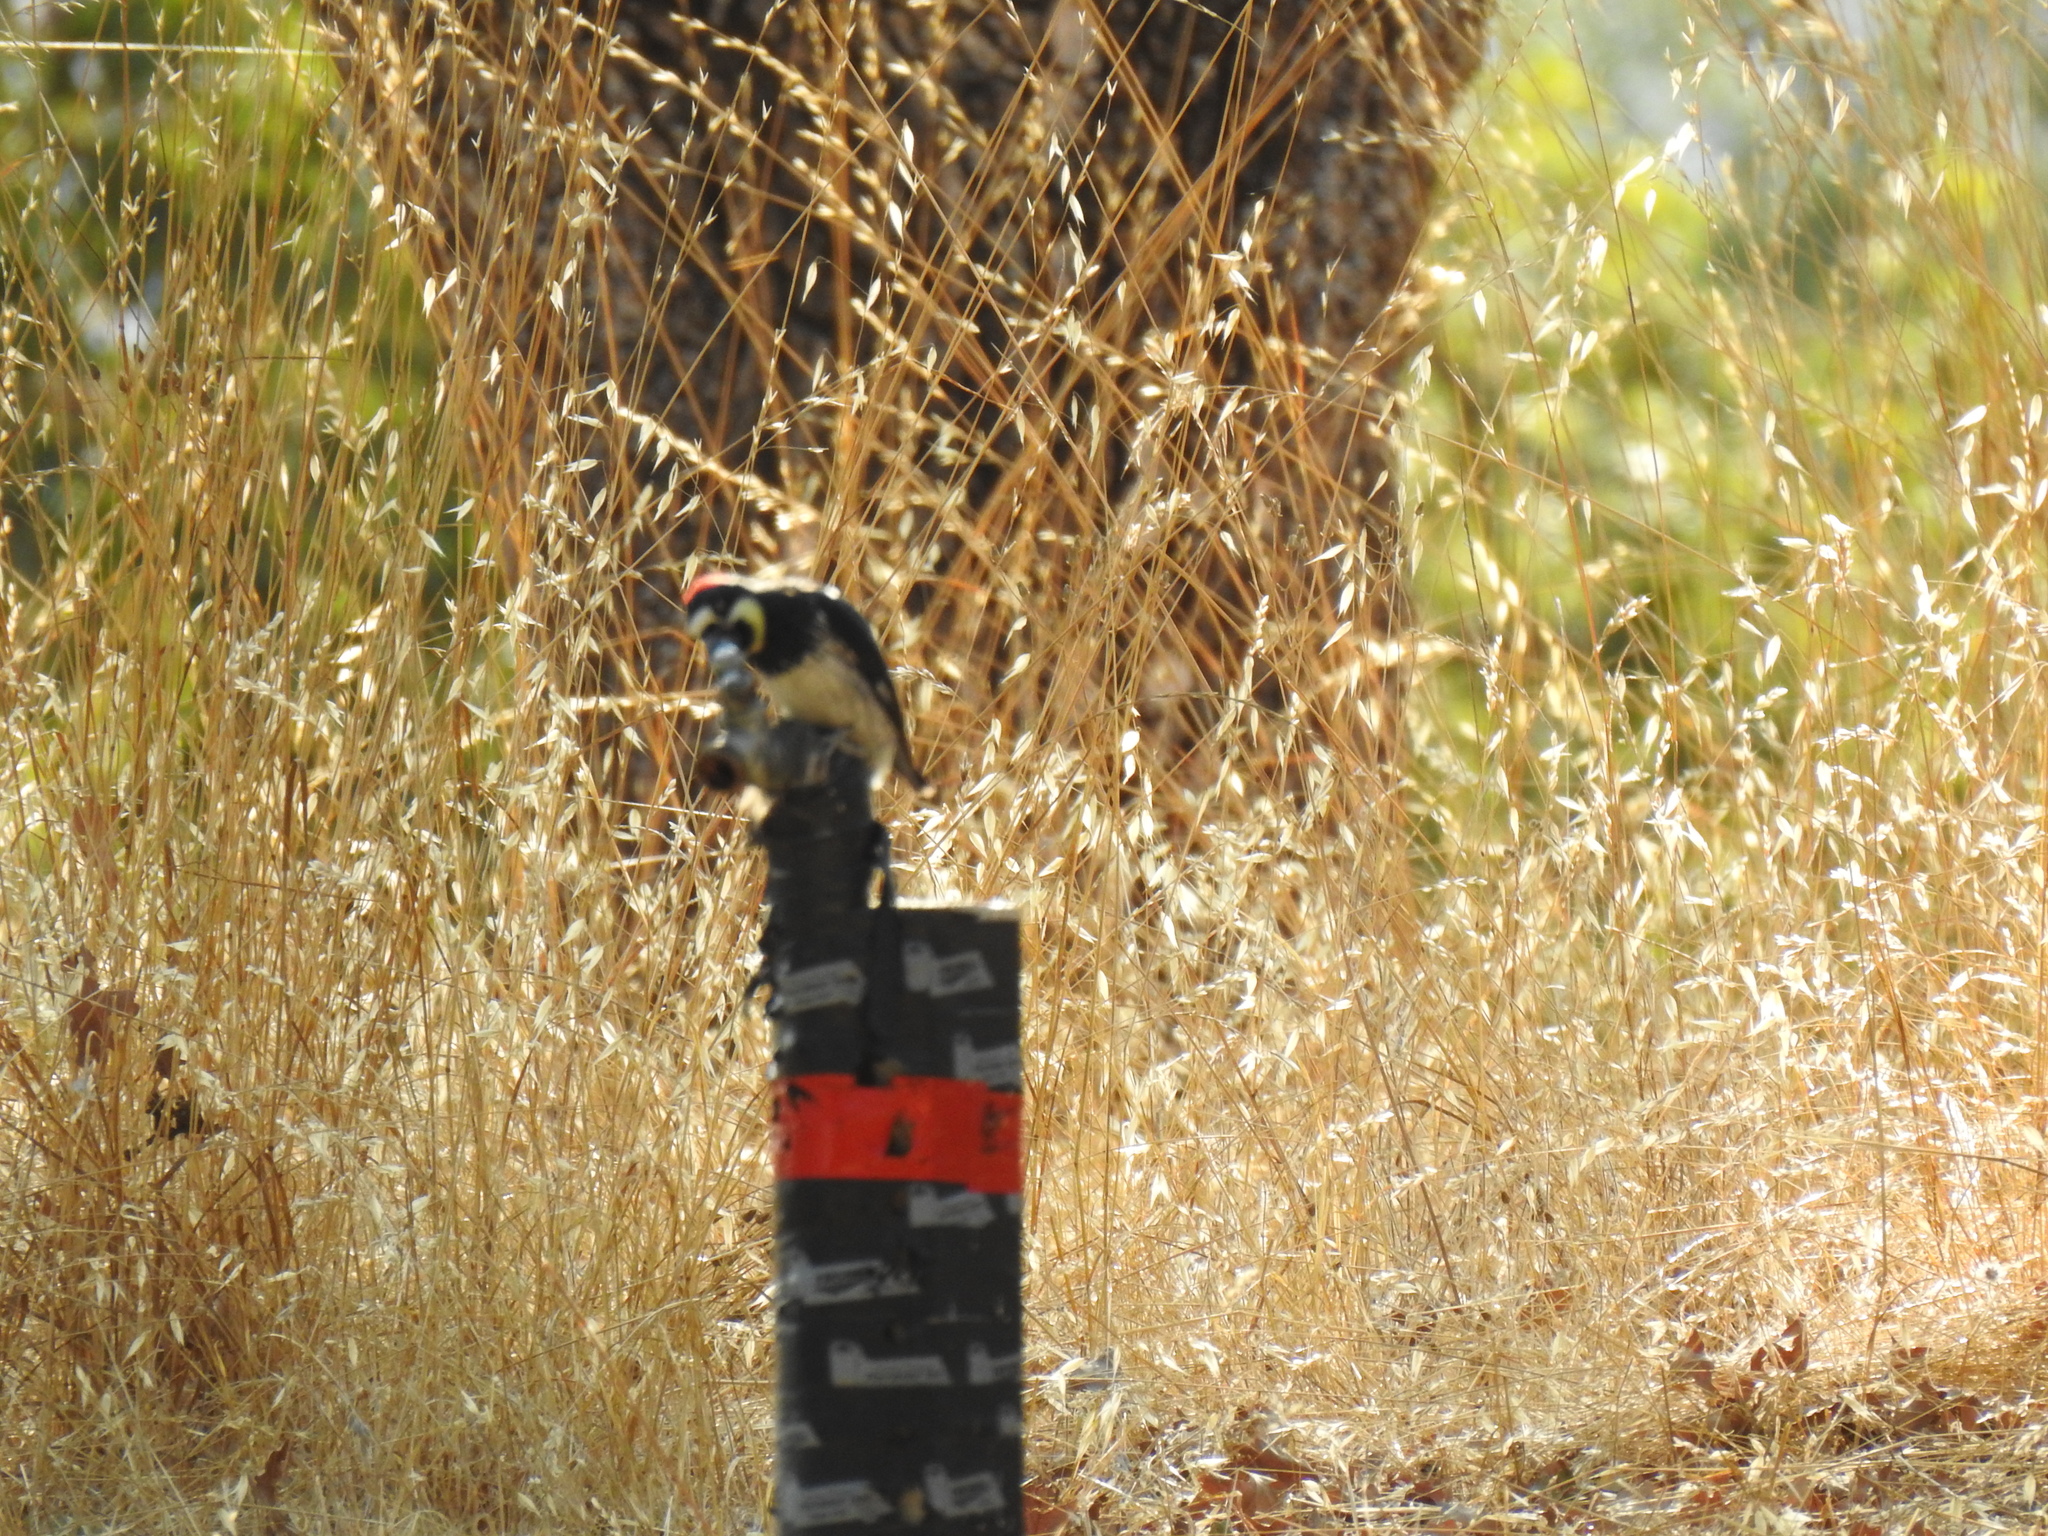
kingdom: Animalia
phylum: Chordata
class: Aves
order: Piciformes
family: Picidae
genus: Melanerpes
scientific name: Melanerpes formicivorus
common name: Acorn woodpecker
